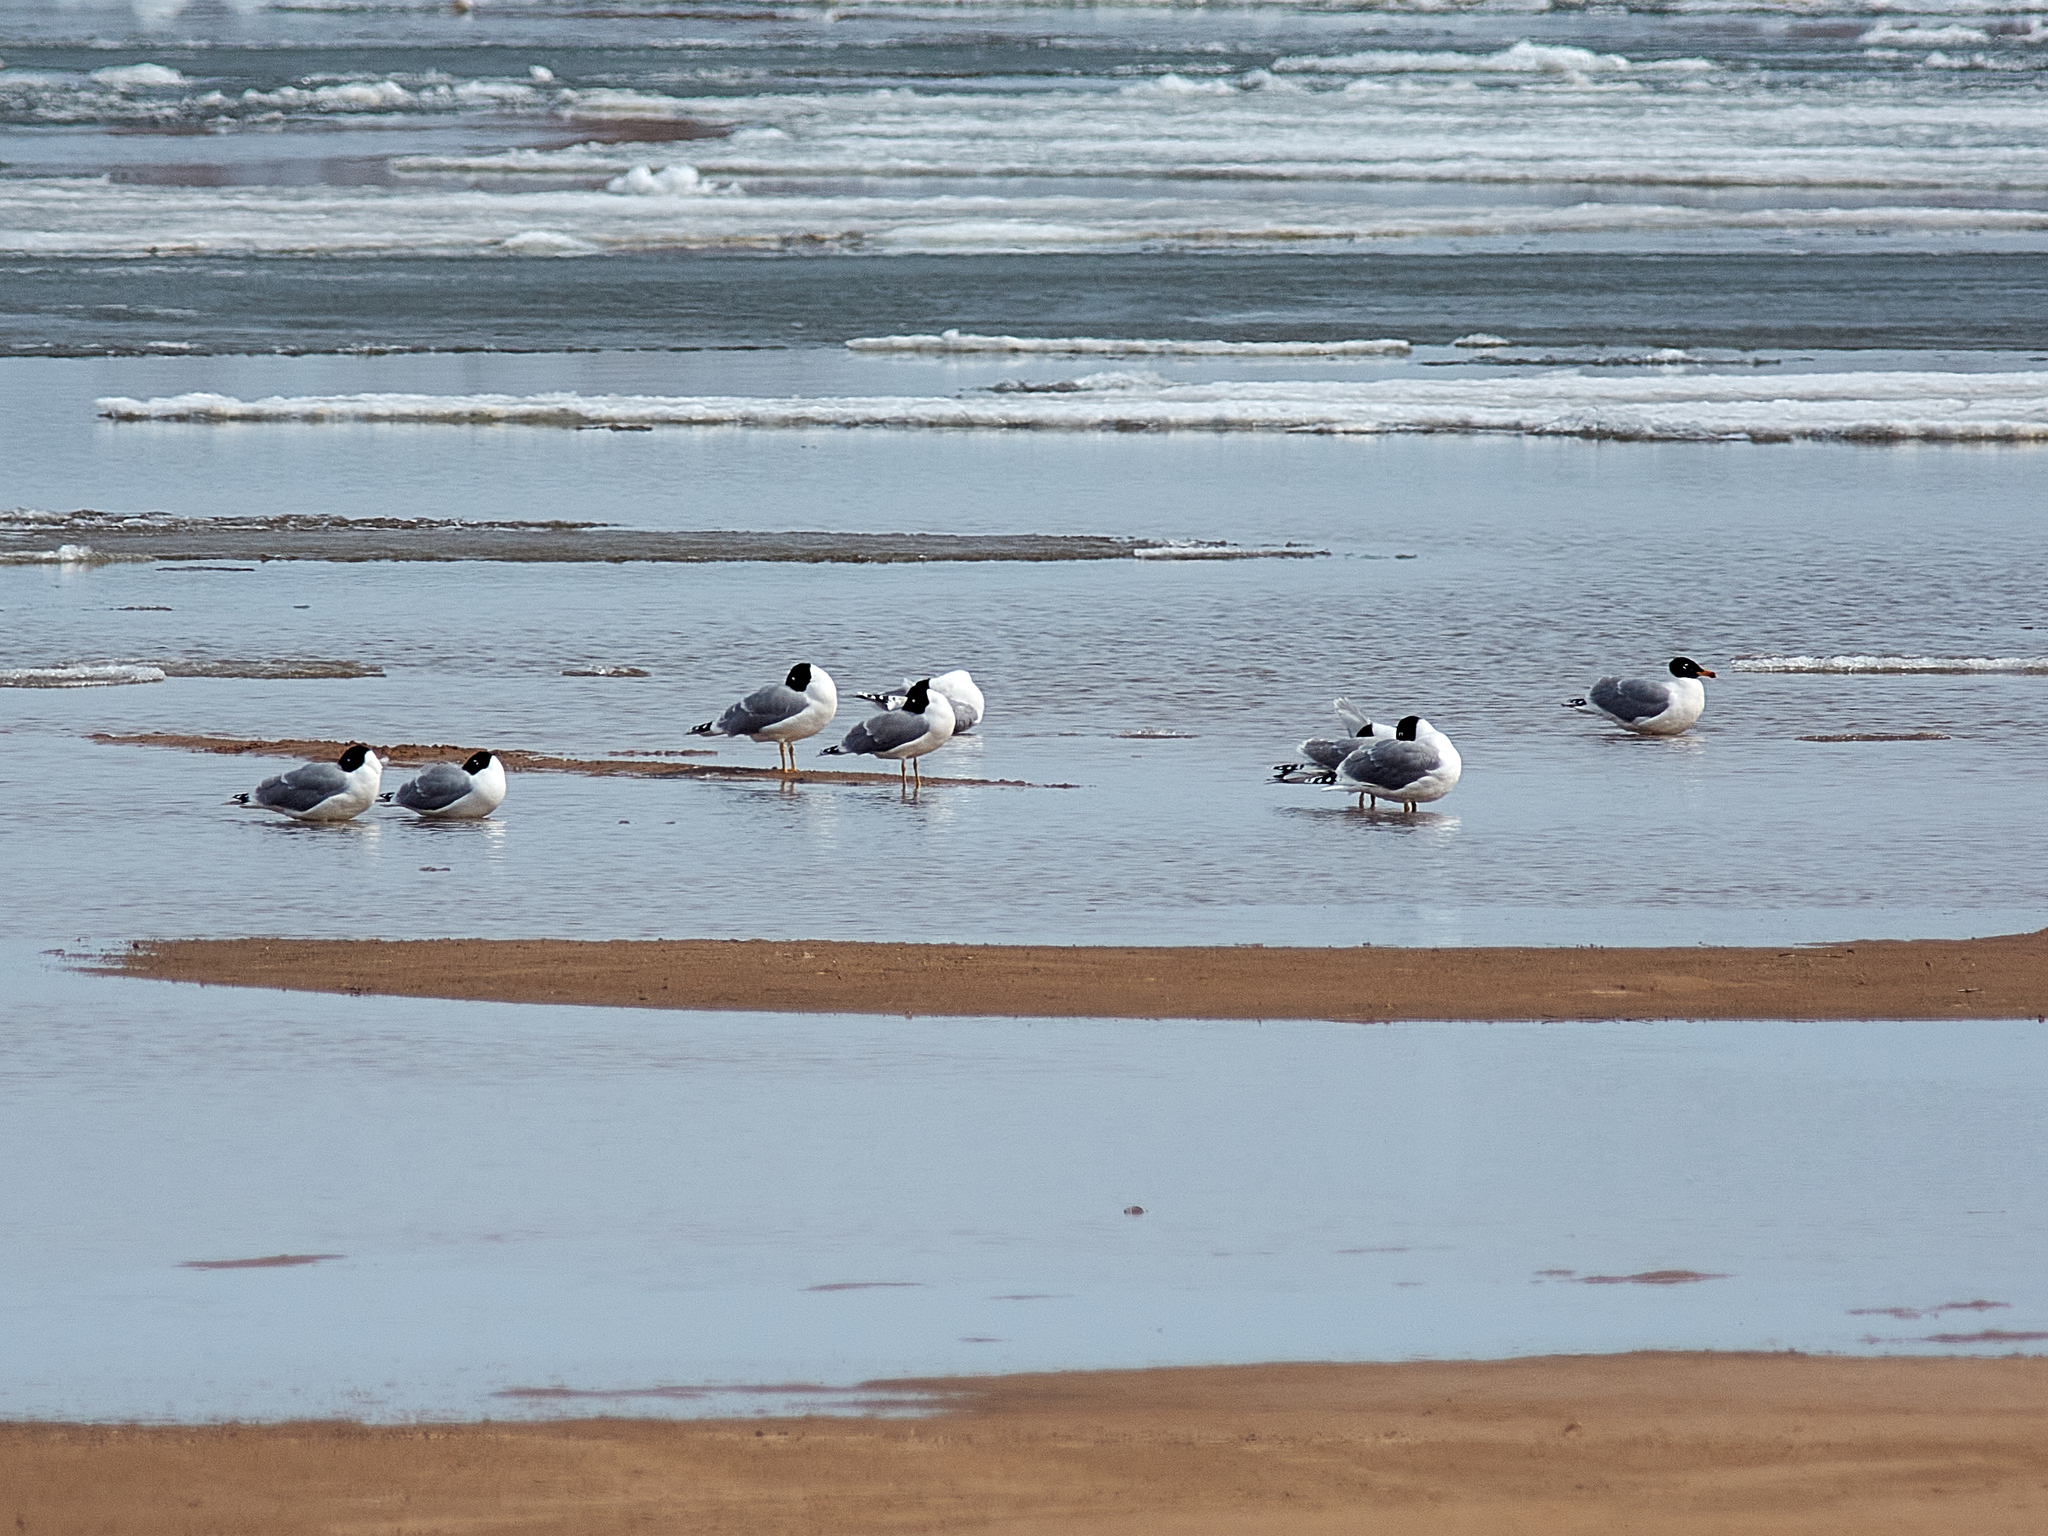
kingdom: Animalia
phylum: Chordata
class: Aves
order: Charadriiformes
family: Laridae
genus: Ichthyaetus
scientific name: Ichthyaetus ichthyaetus
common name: Pallas's gull
